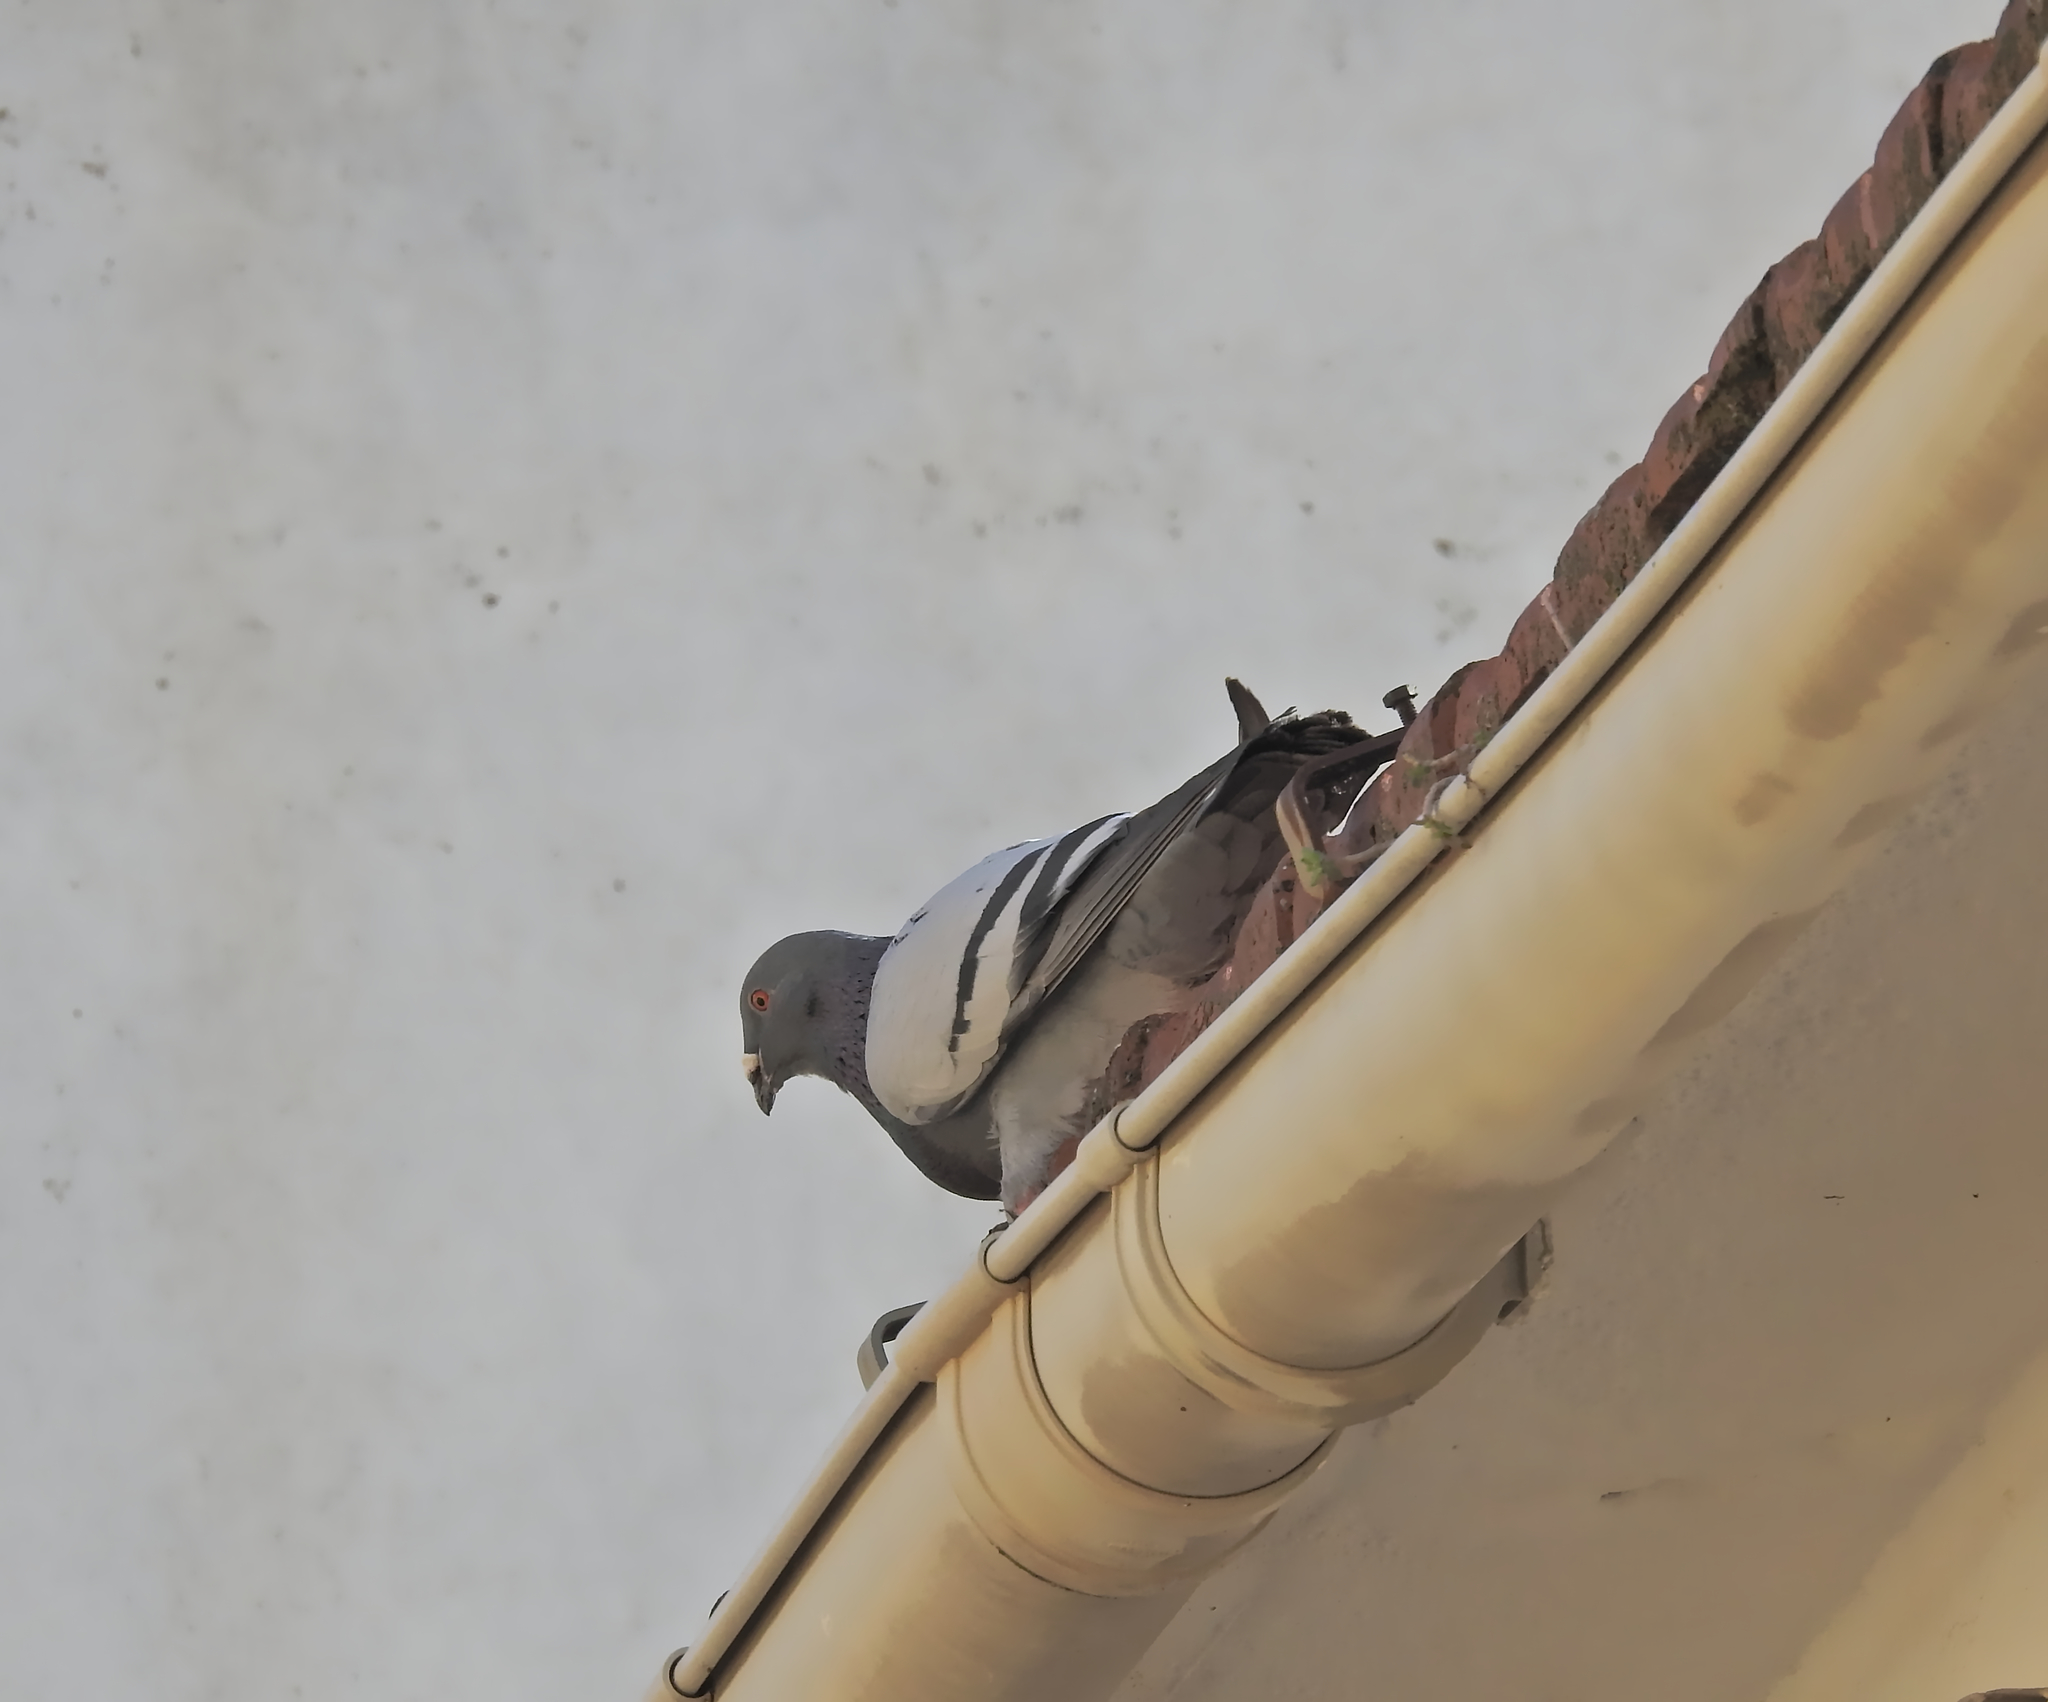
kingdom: Animalia
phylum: Chordata
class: Aves
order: Columbiformes
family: Columbidae
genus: Columba
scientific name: Columba livia
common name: Rock pigeon
